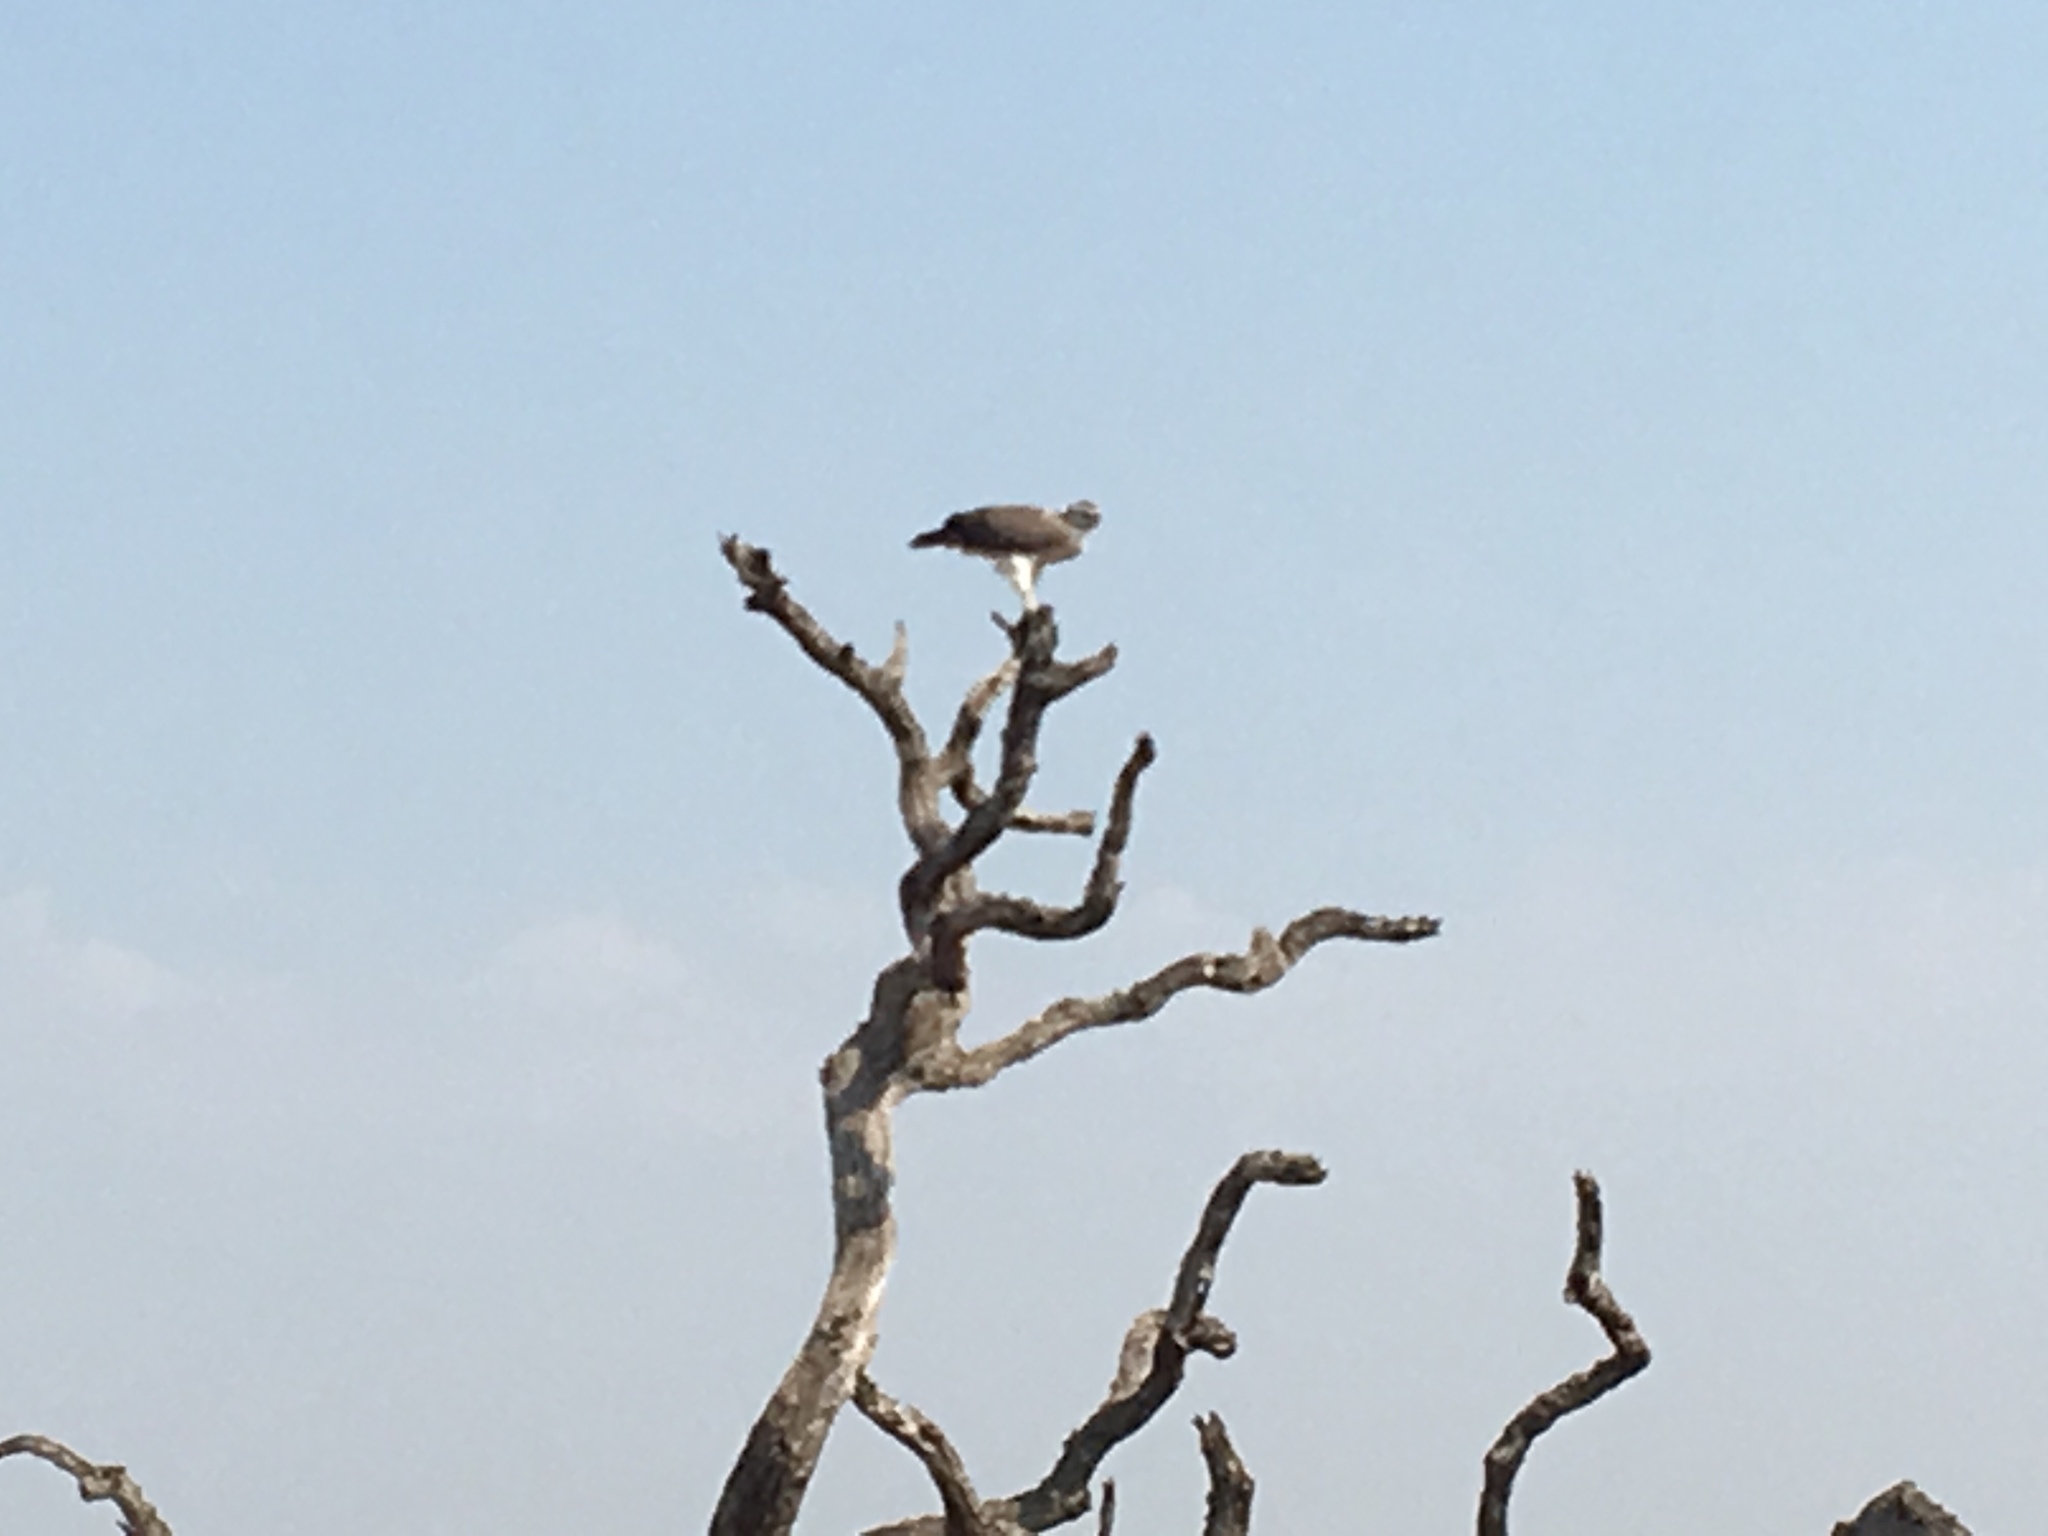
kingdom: Animalia
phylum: Chordata
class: Aves
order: Accipitriformes
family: Accipitridae
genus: Polemaetus
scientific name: Polemaetus bellicosus
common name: Martial eagle
